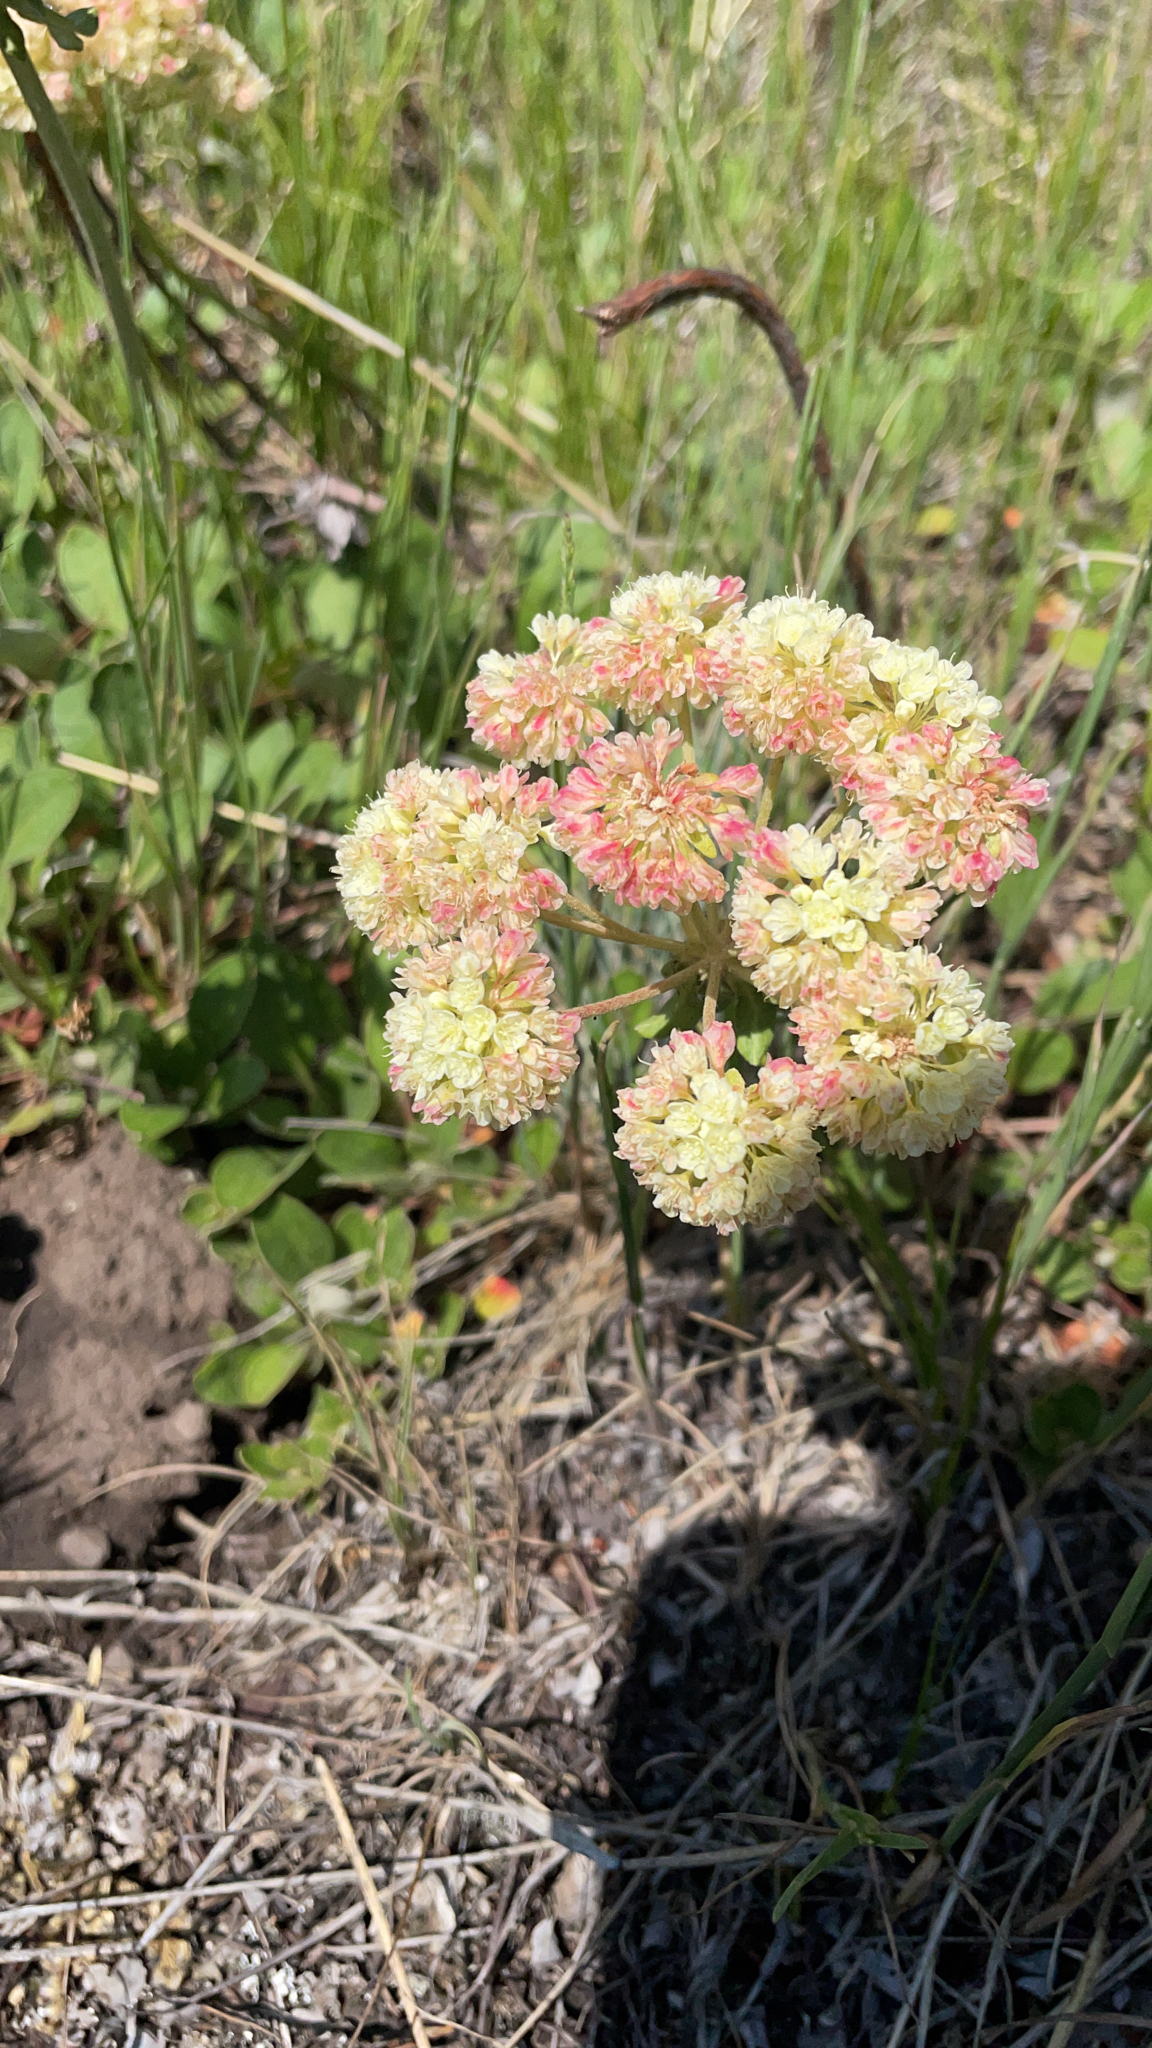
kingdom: Plantae
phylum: Tracheophyta
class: Magnoliopsida
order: Caryophyllales
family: Polygonaceae
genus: Eriogonum
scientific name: Eriogonum umbellatum
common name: Sulfur-buckwheat
